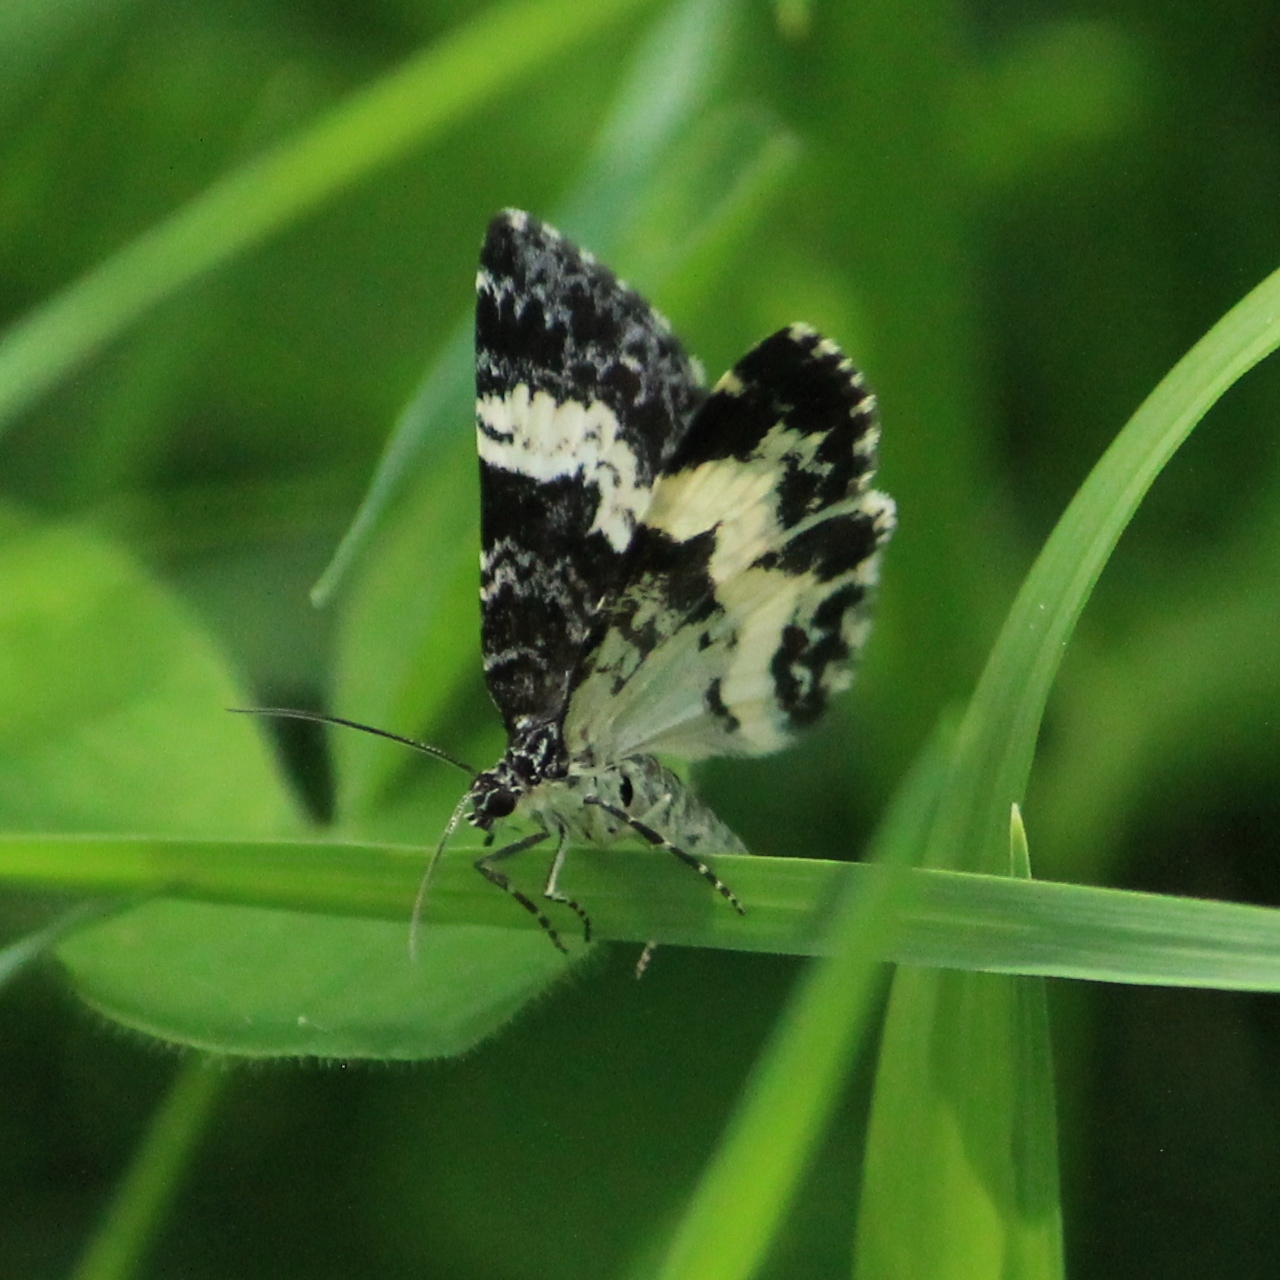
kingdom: Animalia
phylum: Arthropoda
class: Insecta
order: Lepidoptera
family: Geometridae
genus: Spargania
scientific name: Spargania luctuata
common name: White-banded carpet
